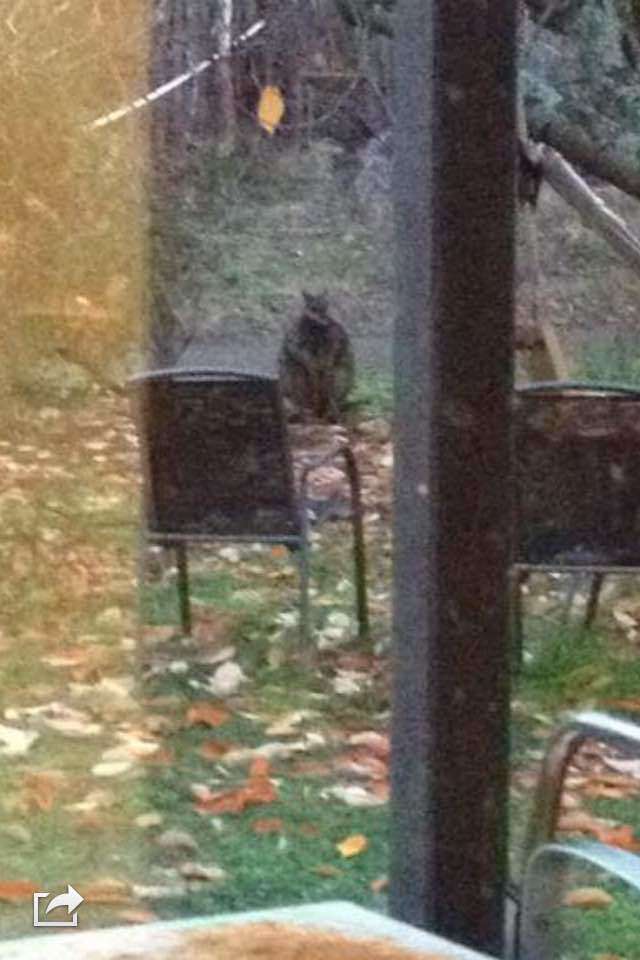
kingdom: Animalia
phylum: Chordata
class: Mammalia
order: Diprotodontia
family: Macropodidae
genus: Wallabia
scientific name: Wallabia bicolor
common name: Swamp wallaby
